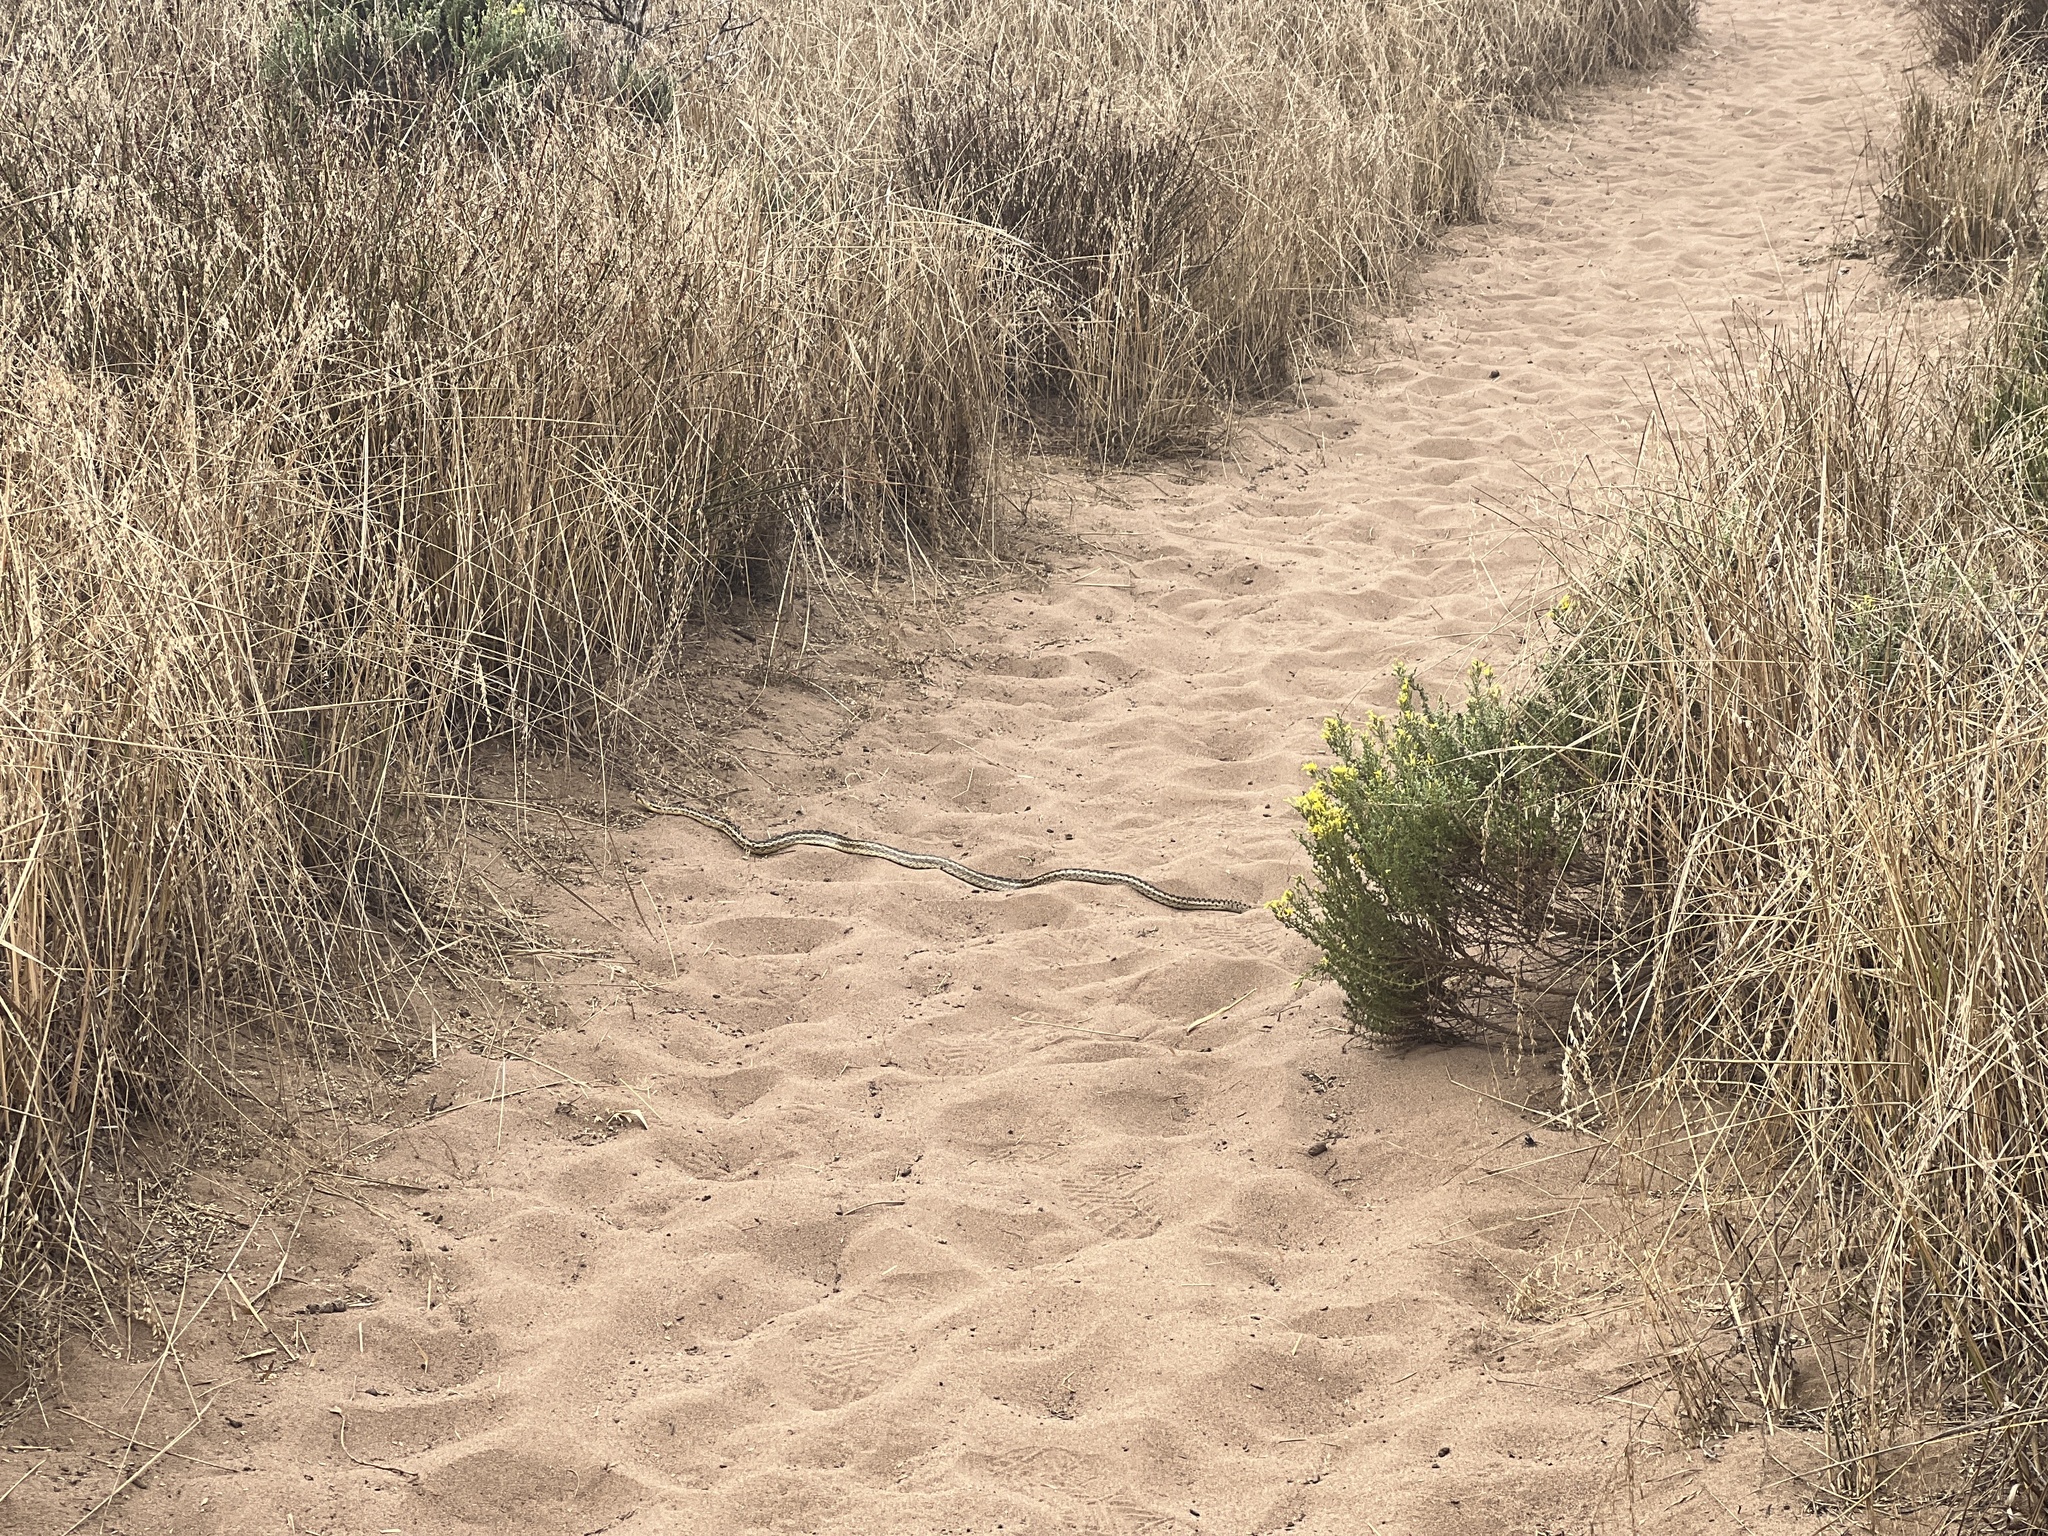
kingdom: Animalia
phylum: Chordata
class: Squamata
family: Colubridae
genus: Pituophis
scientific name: Pituophis catenifer
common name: Gopher snake
